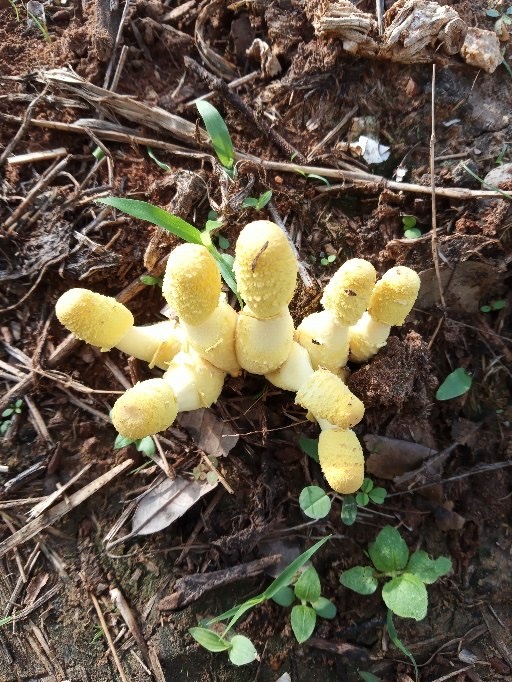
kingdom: Fungi
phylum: Basidiomycota
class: Agaricomycetes
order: Agaricales
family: Agaricaceae
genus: Leucocoprinus
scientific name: Leucocoprinus birnbaumii
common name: Plantpot dapperling
